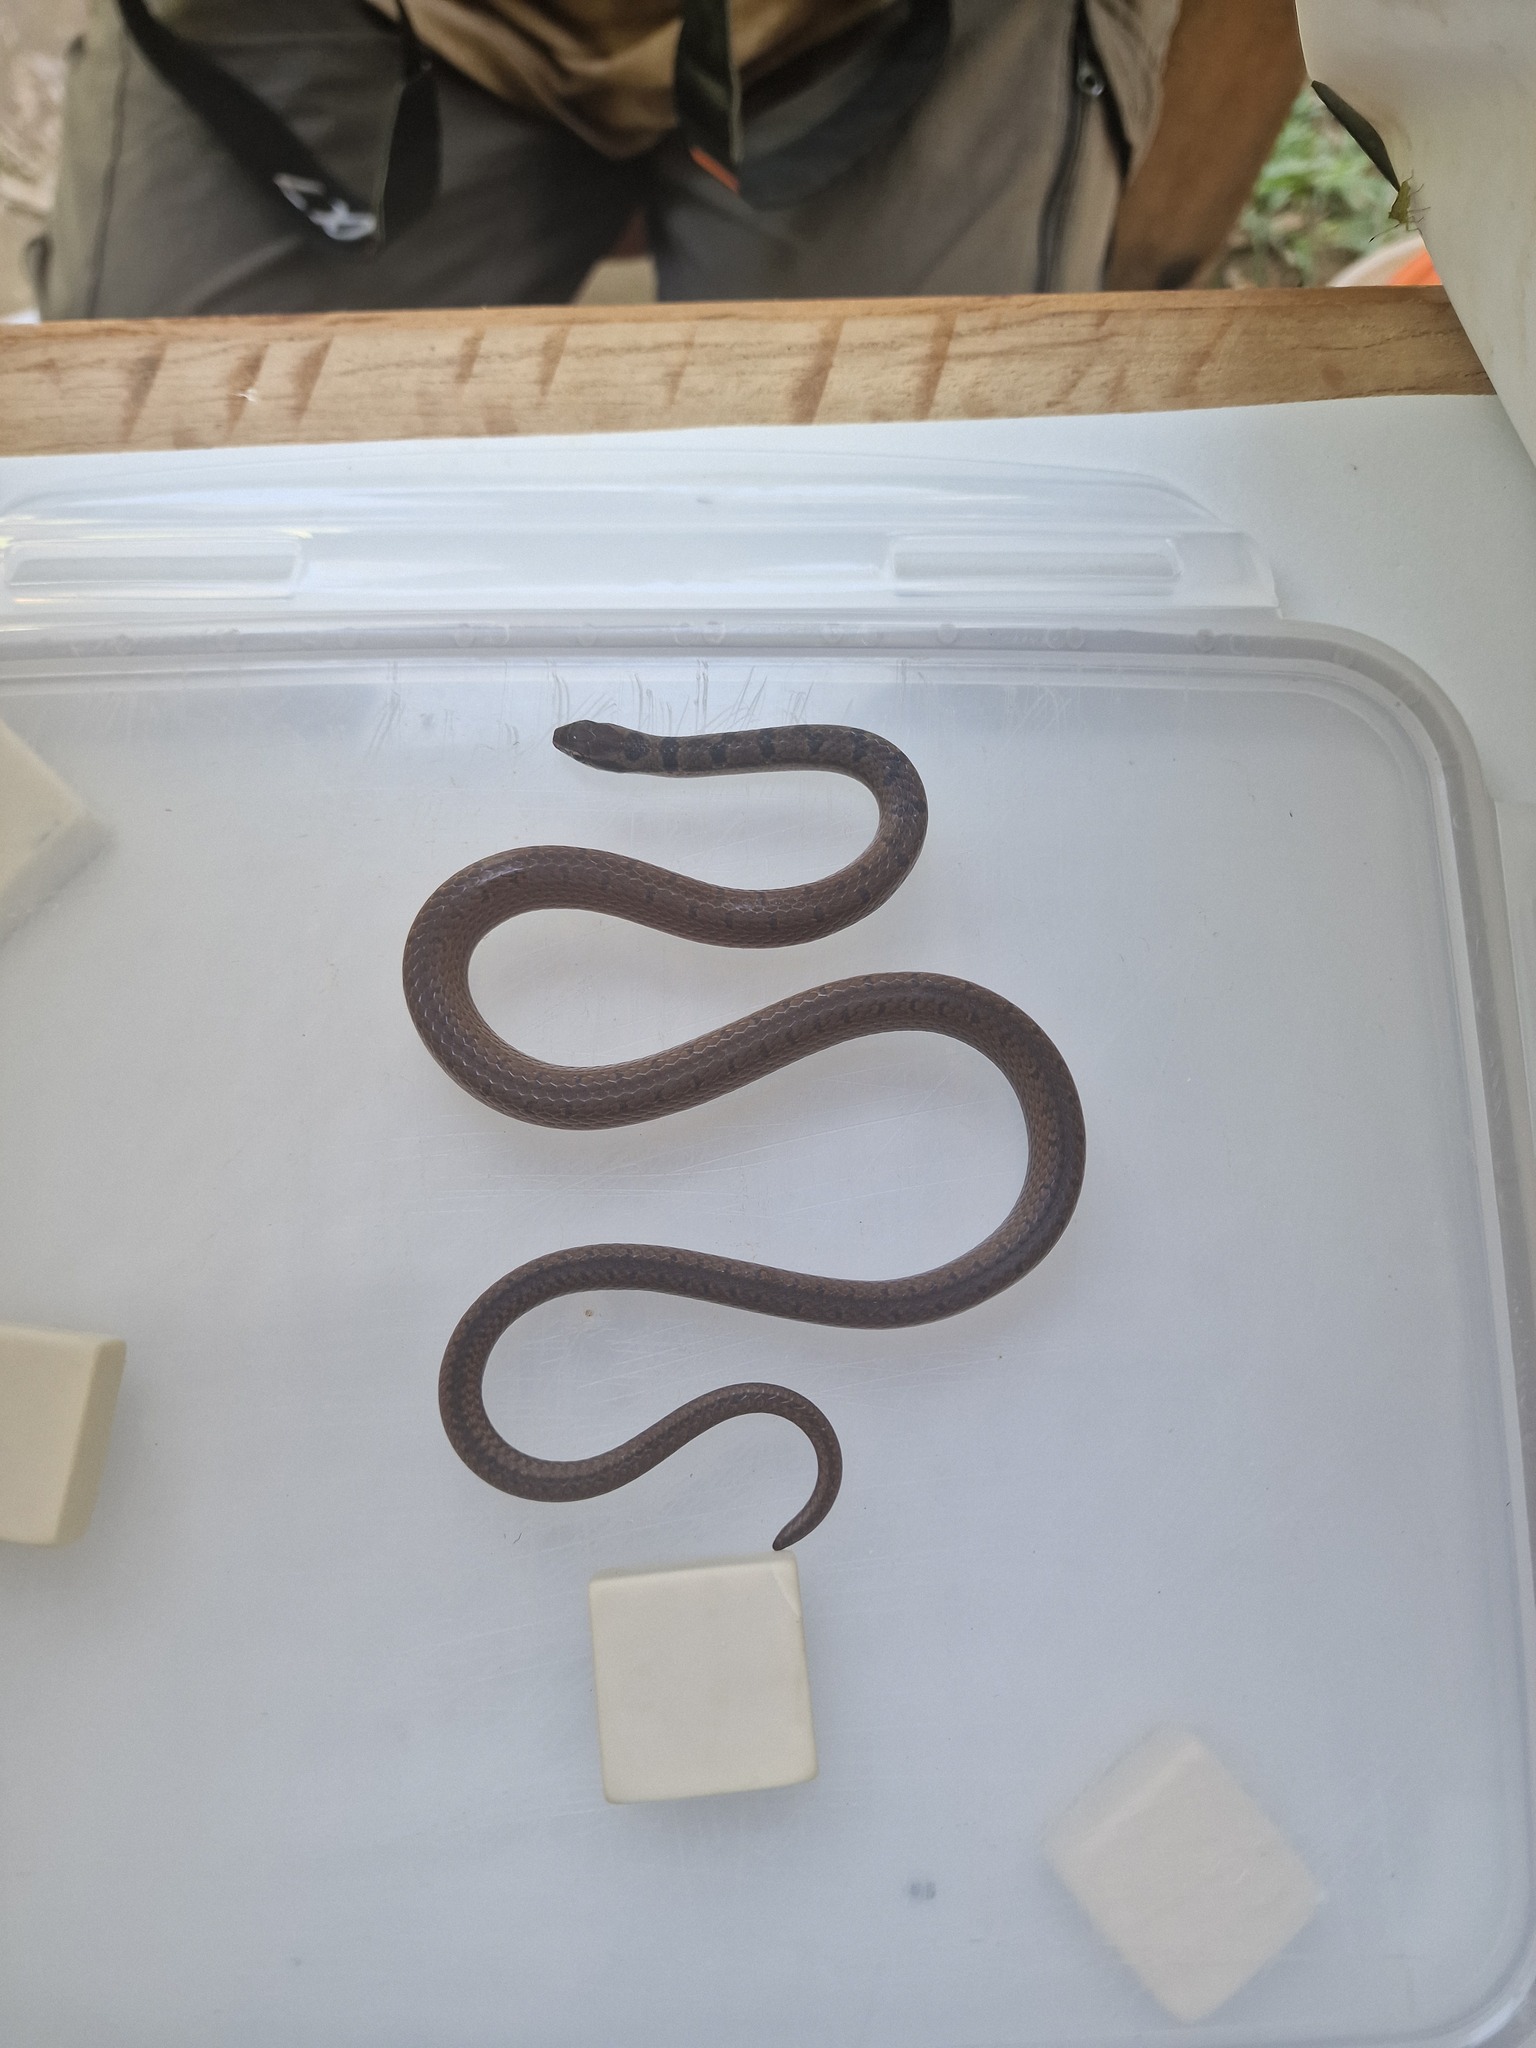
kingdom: Animalia
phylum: Chordata
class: Squamata
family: Colubridae
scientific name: Colubridae
